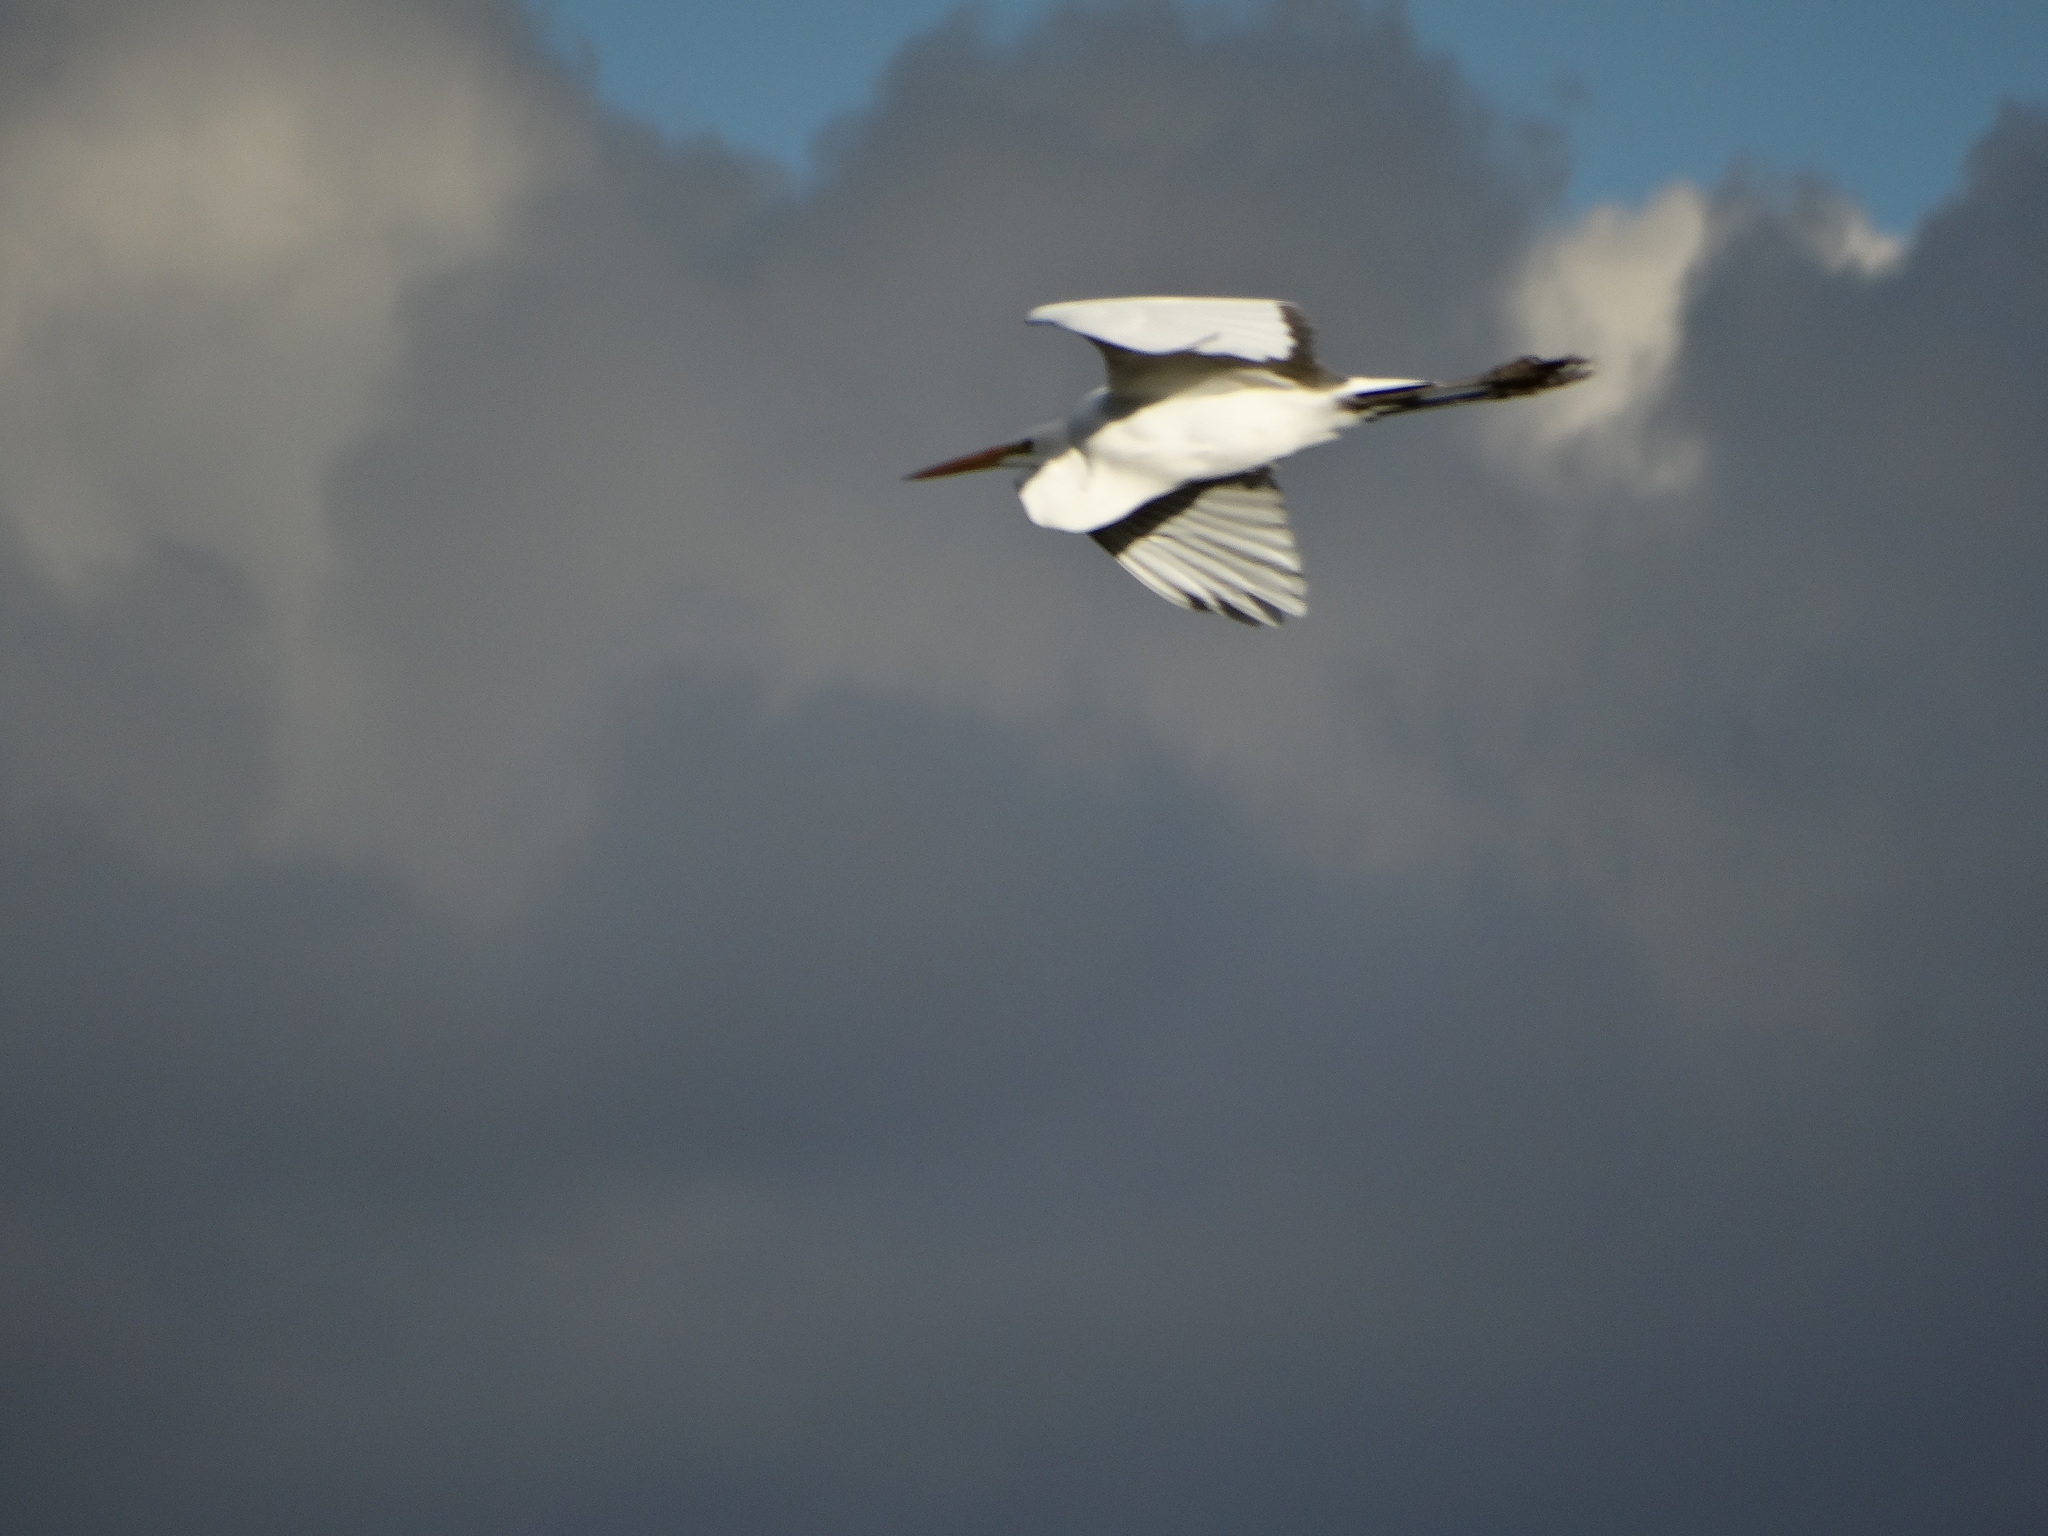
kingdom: Animalia
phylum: Chordata
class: Aves
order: Pelecaniformes
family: Ardeidae
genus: Ardea
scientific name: Ardea alba
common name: Great egret
